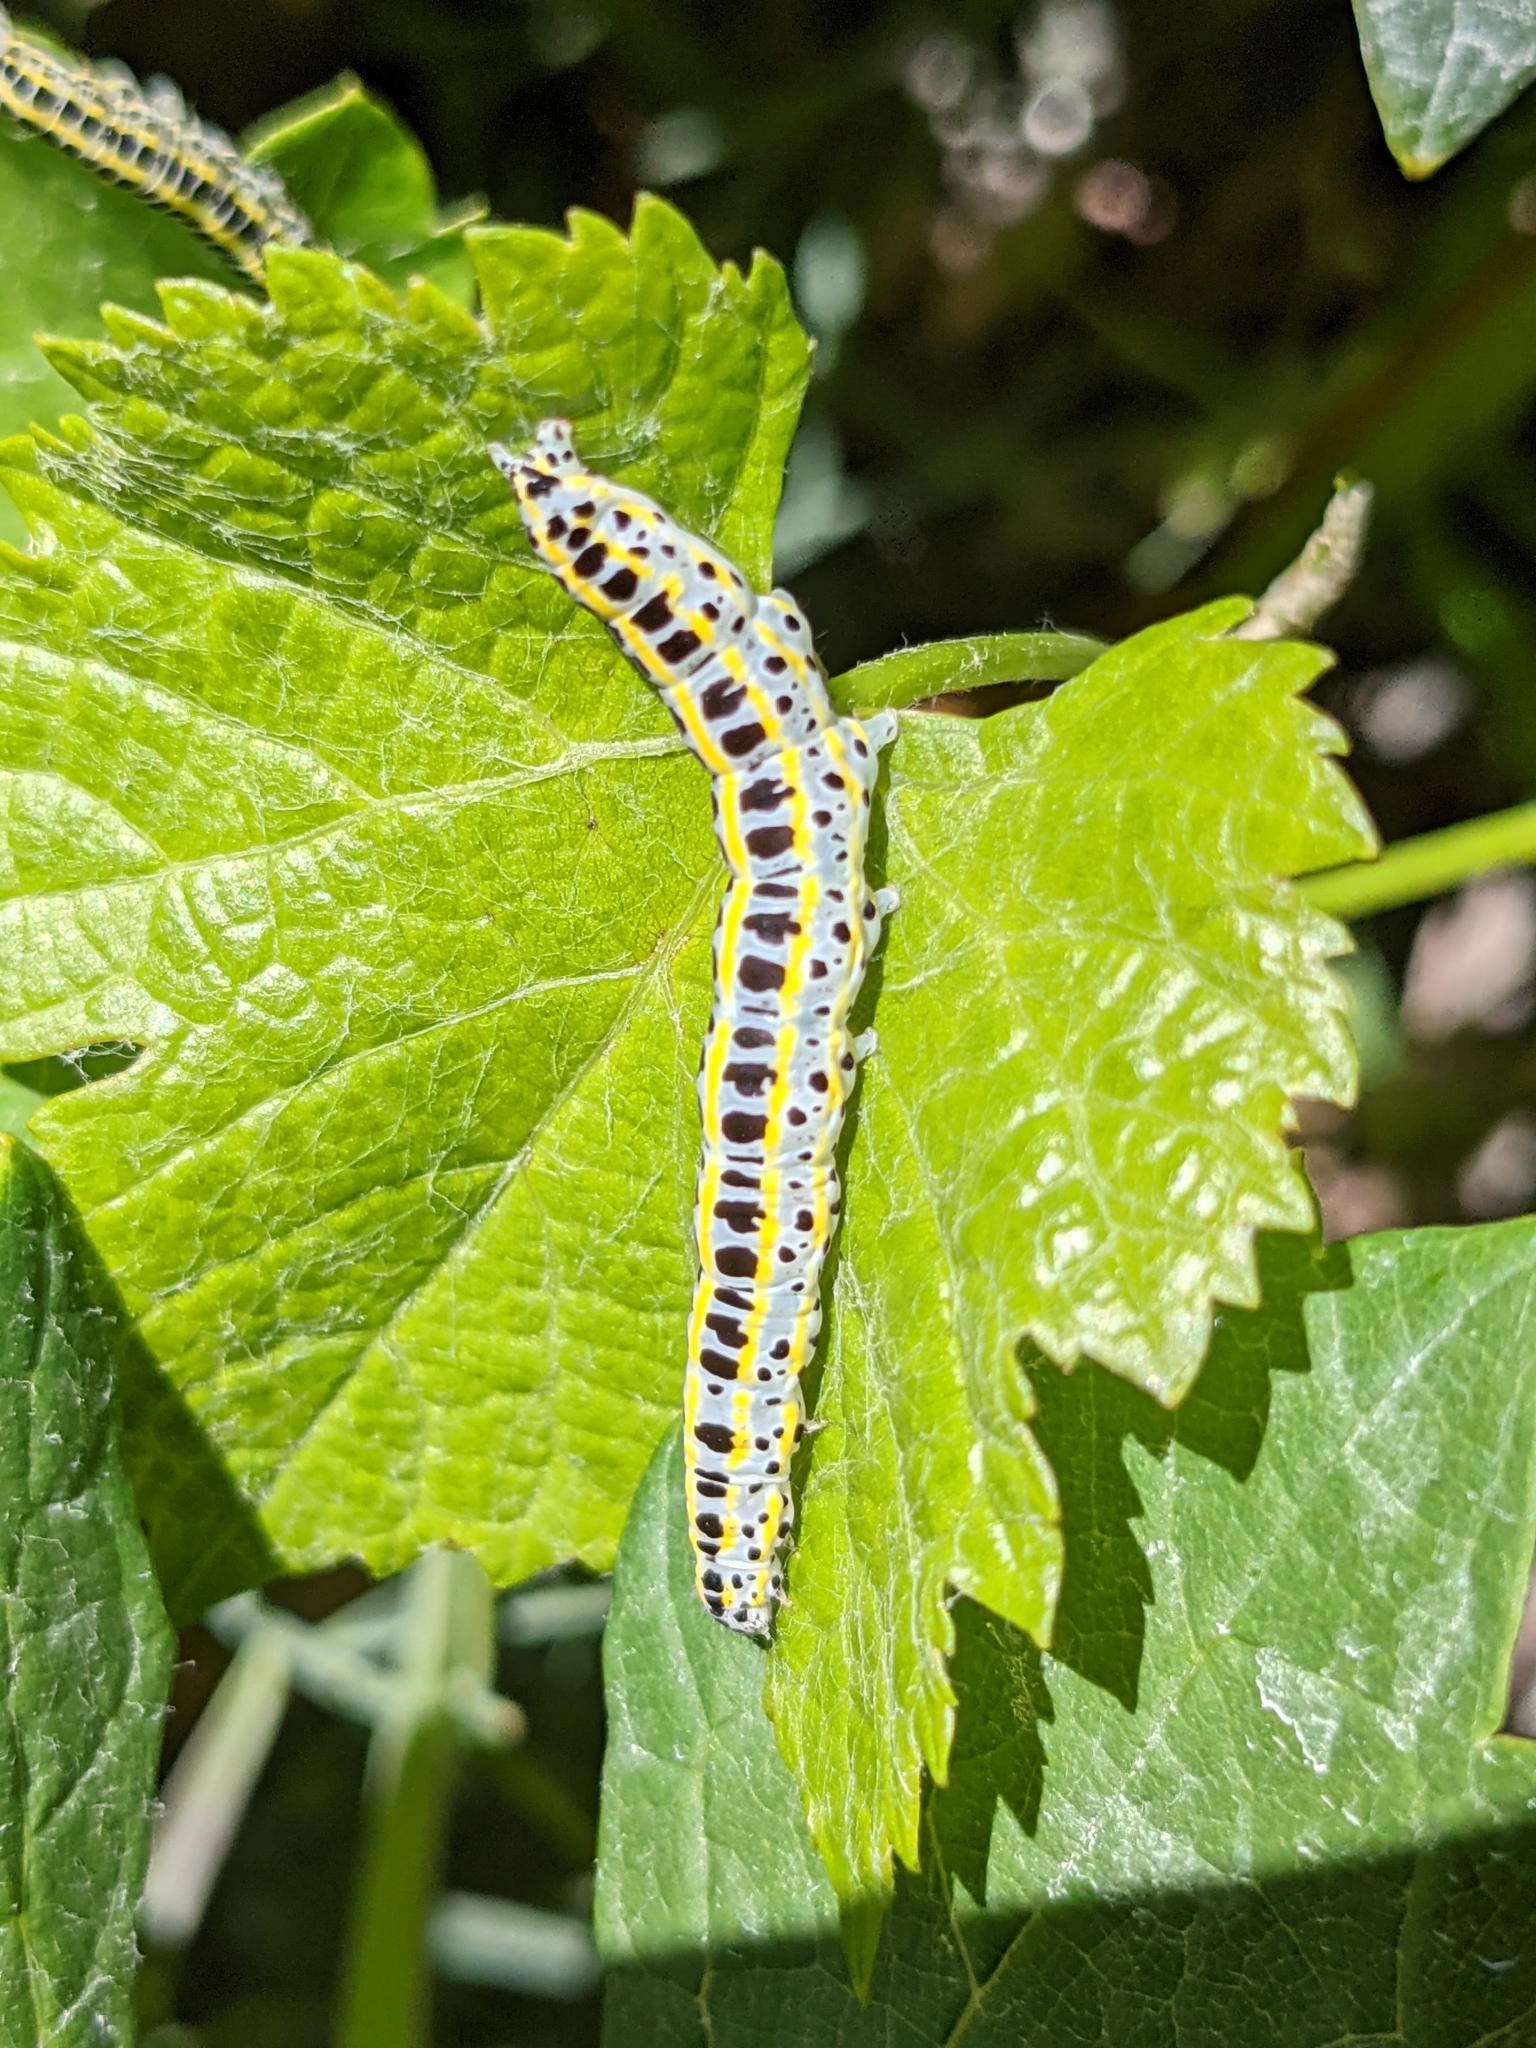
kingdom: Animalia
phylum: Arthropoda
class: Insecta
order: Lepidoptera
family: Noctuidae
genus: Calophasia
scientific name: Calophasia lunula
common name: Toadflax brocade
